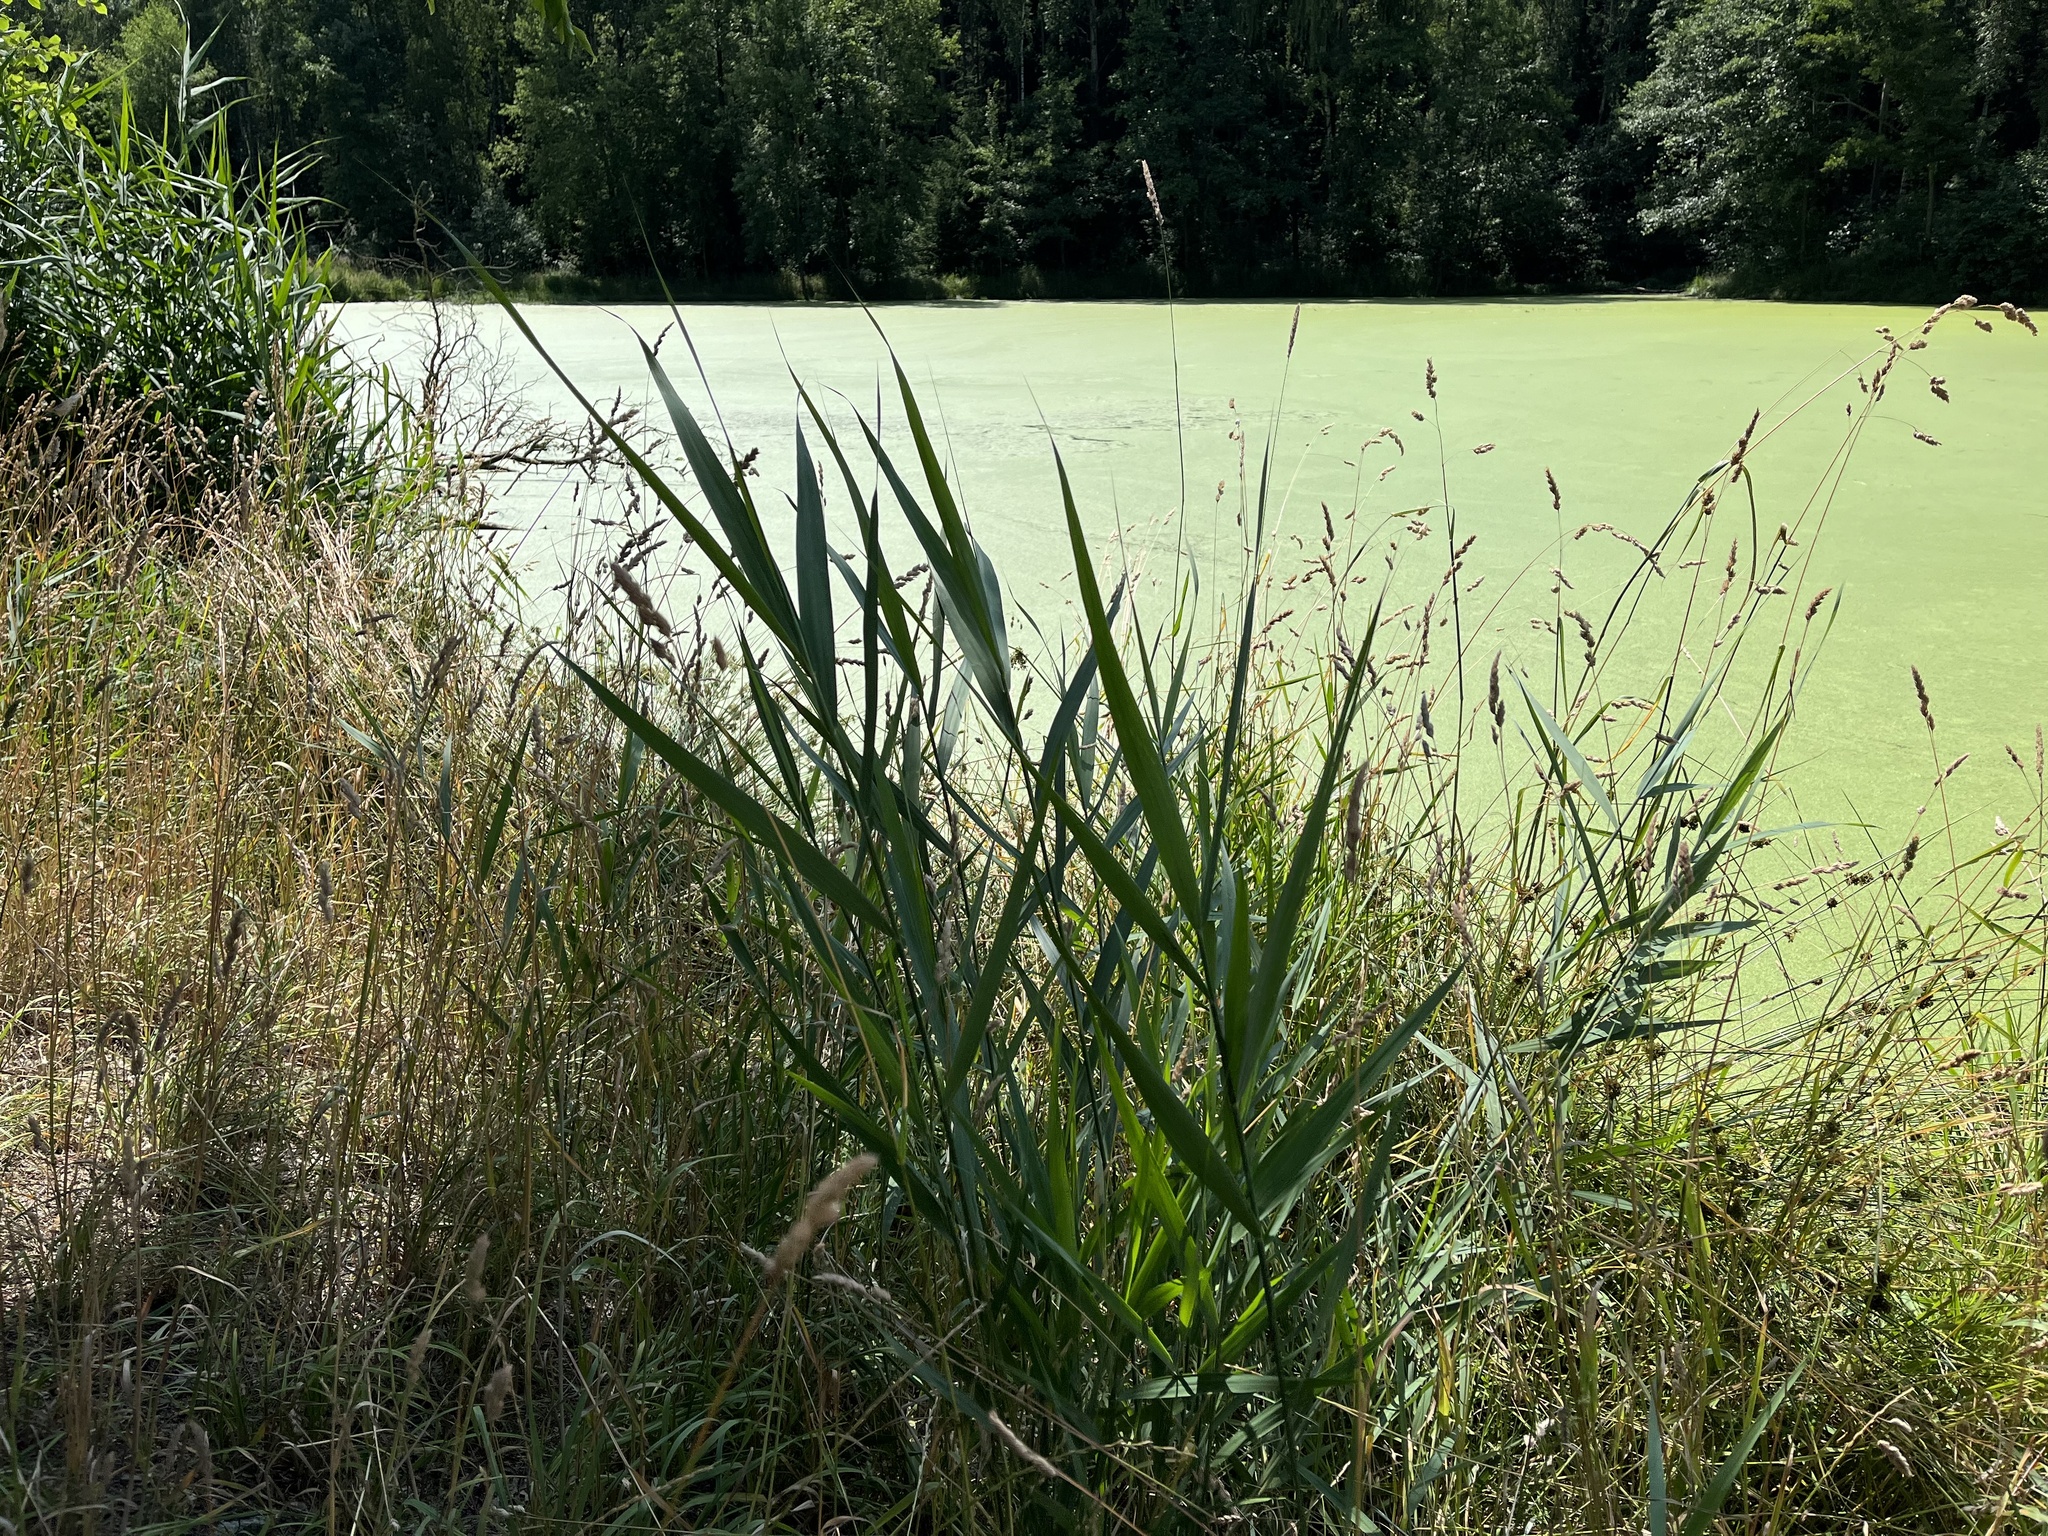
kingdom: Plantae
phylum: Tracheophyta
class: Liliopsida
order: Poales
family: Poaceae
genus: Phragmites
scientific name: Phragmites australis
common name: Common reed
